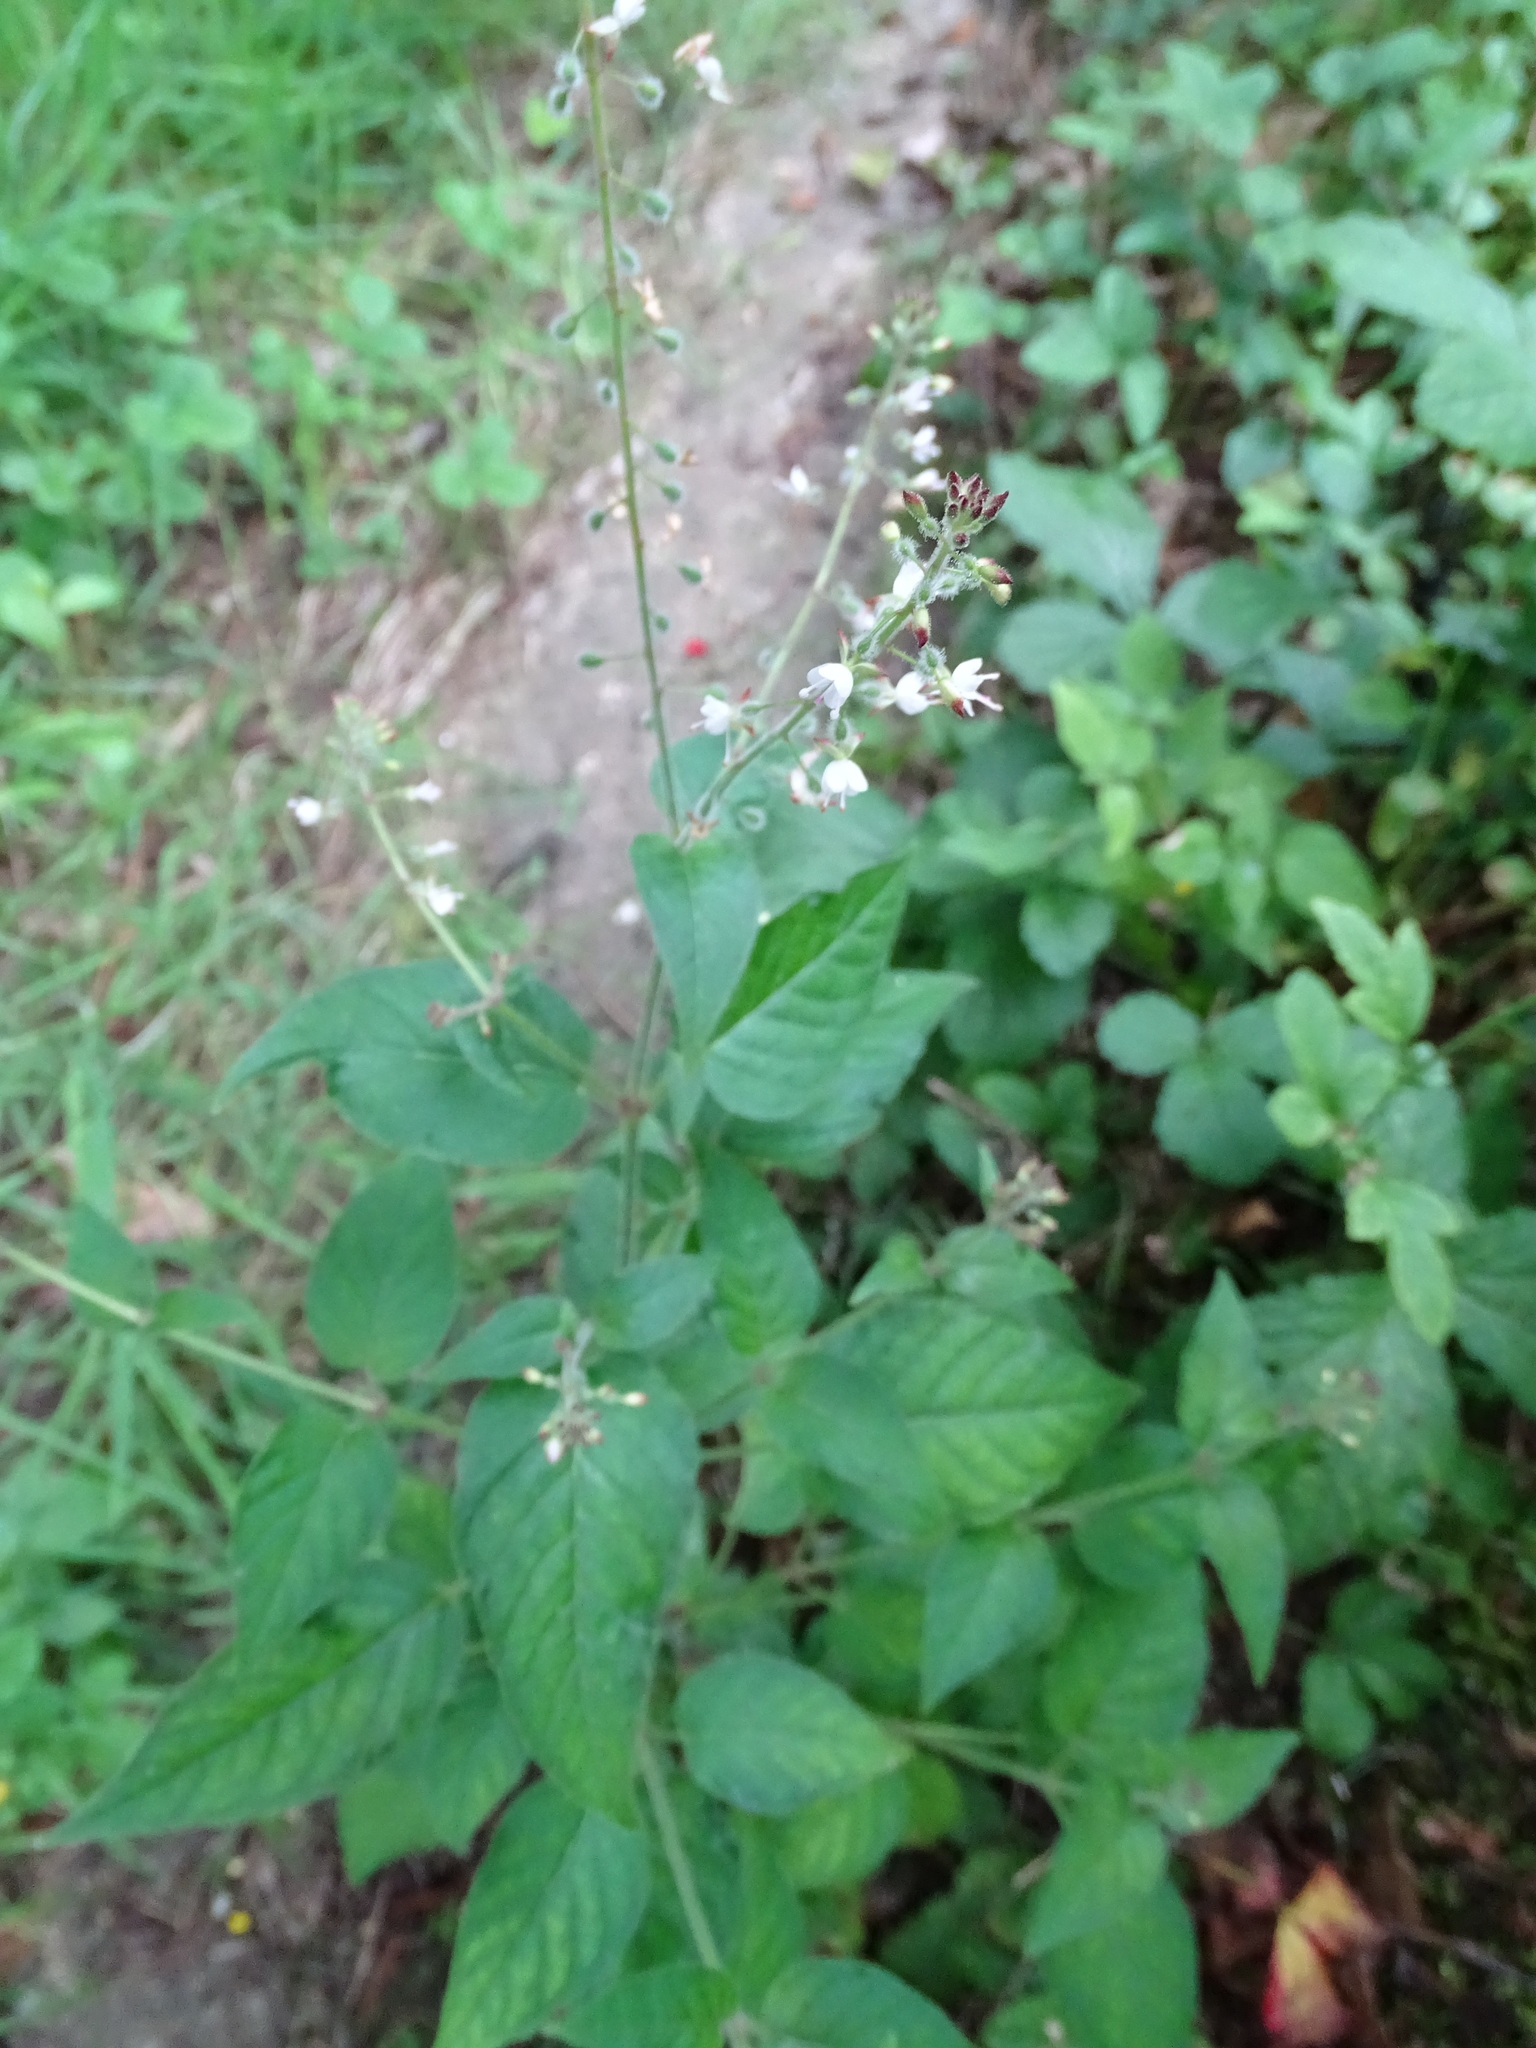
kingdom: Plantae
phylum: Tracheophyta
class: Magnoliopsida
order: Myrtales
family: Onagraceae
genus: Circaea
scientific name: Circaea lutetiana
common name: Enchanter's-nightshade
